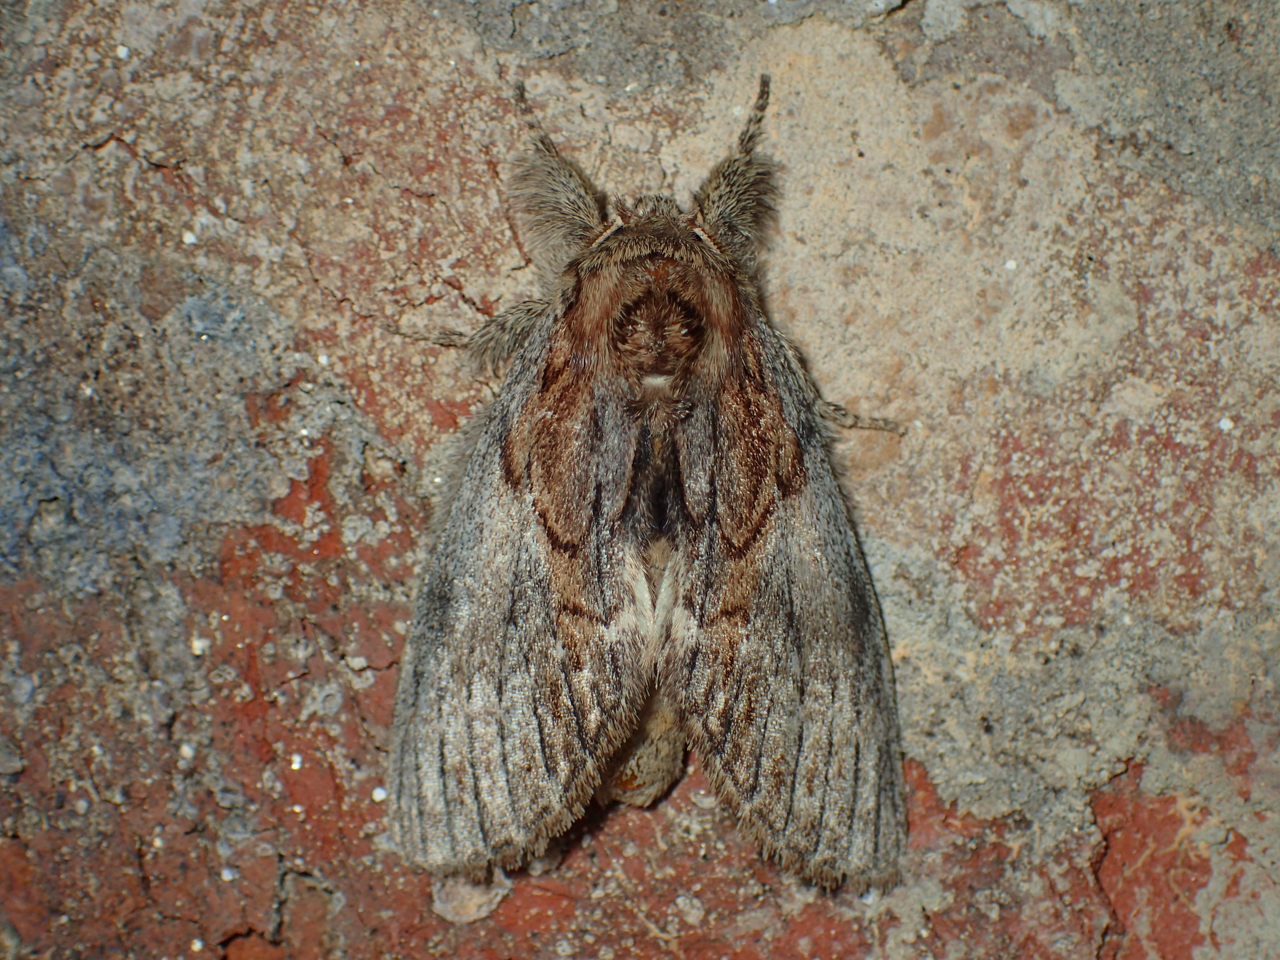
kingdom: Animalia
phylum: Arthropoda
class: Insecta
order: Lepidoptera
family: Notodontidae
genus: Peridea
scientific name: Peridea basitriens
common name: Oval-based prominent
